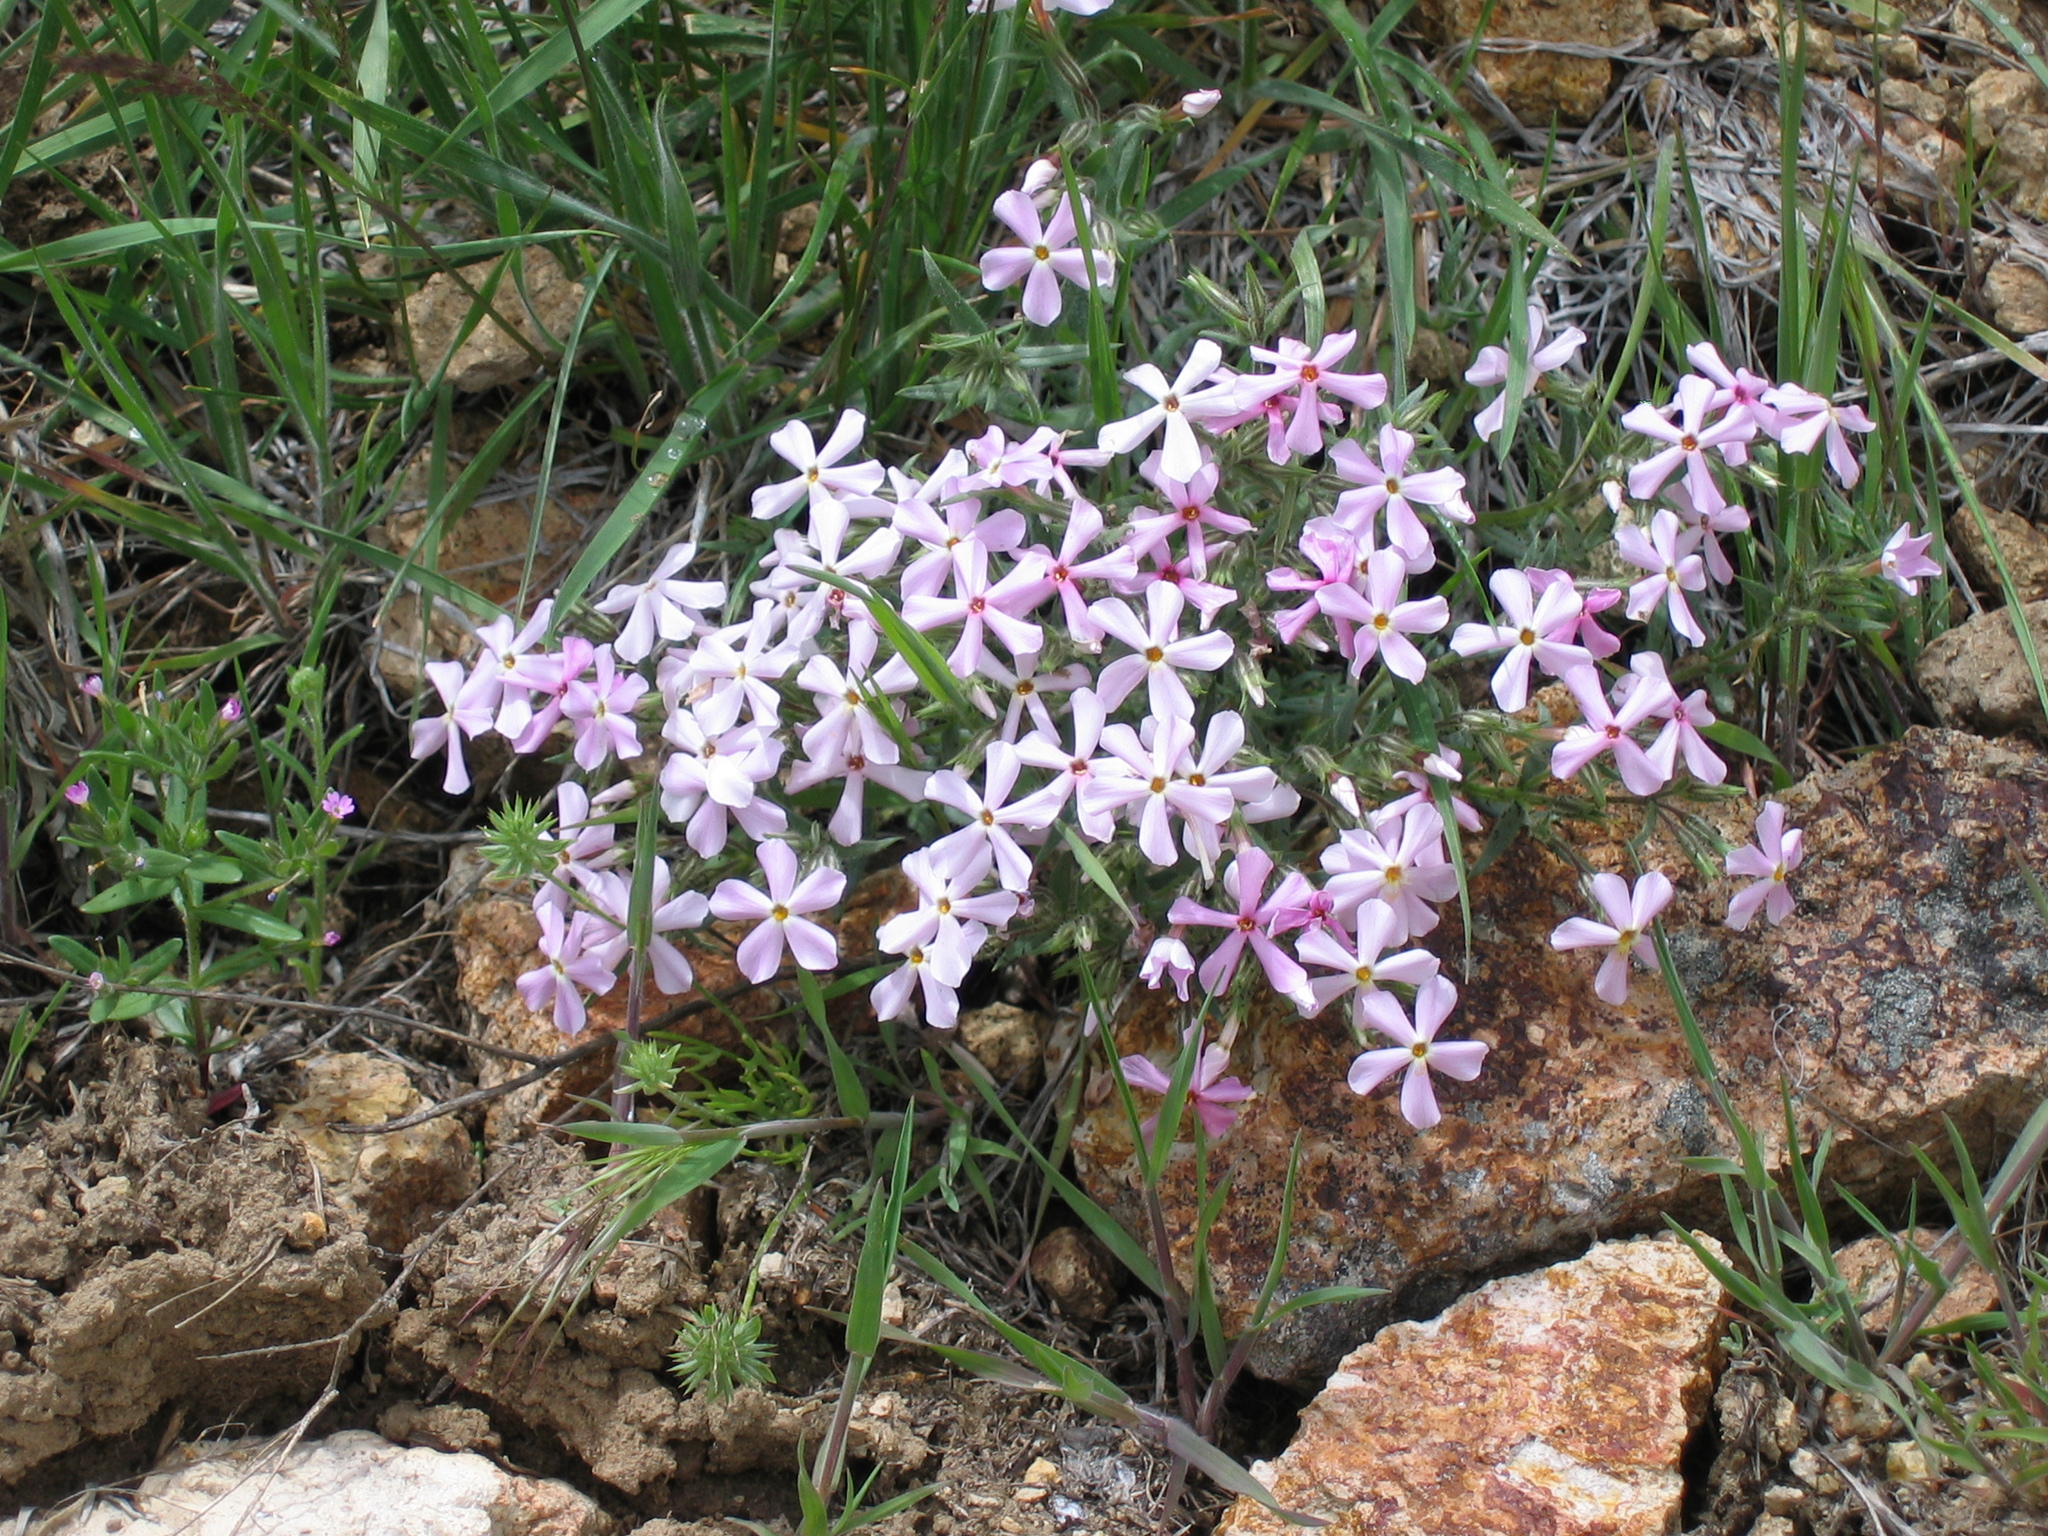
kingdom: Plantae
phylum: Tracheophyta
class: Magnoliopsida
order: Ericales
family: Polemoniaceae
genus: Phlox
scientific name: Phlox longifolia
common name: Longleaf phlox
